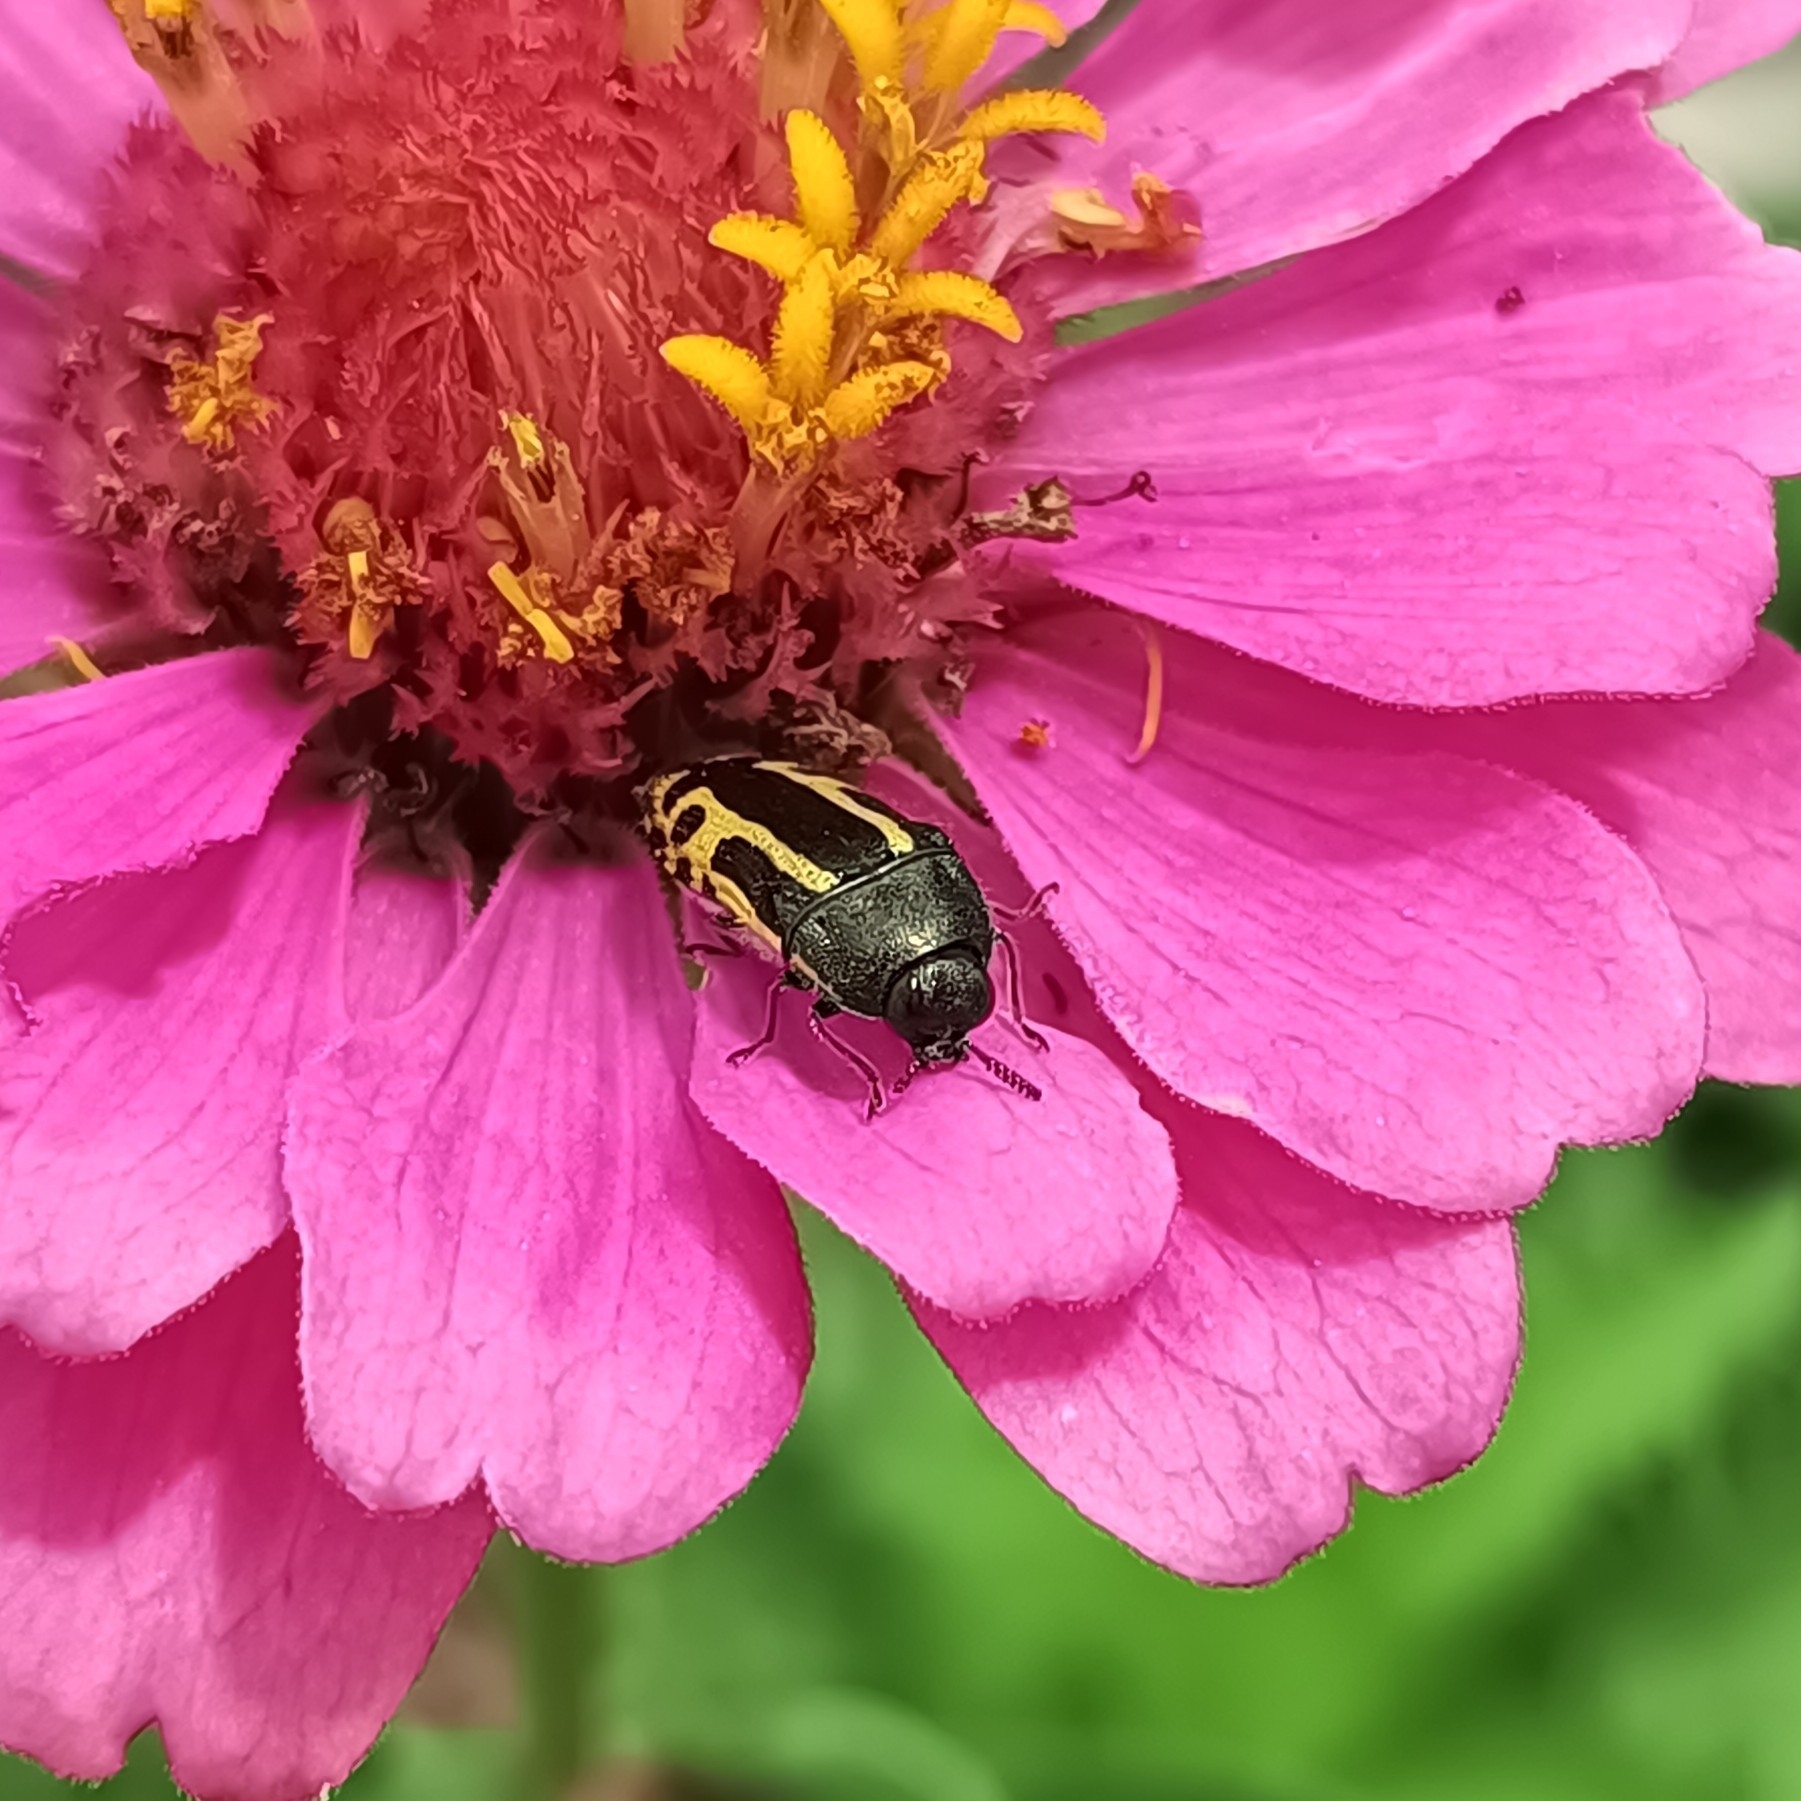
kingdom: Animalia
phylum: Arthropoda
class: Insecta
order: Coleoptera
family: Buprestidae
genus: Acmaeodera
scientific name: Acmaeodera scalaris
